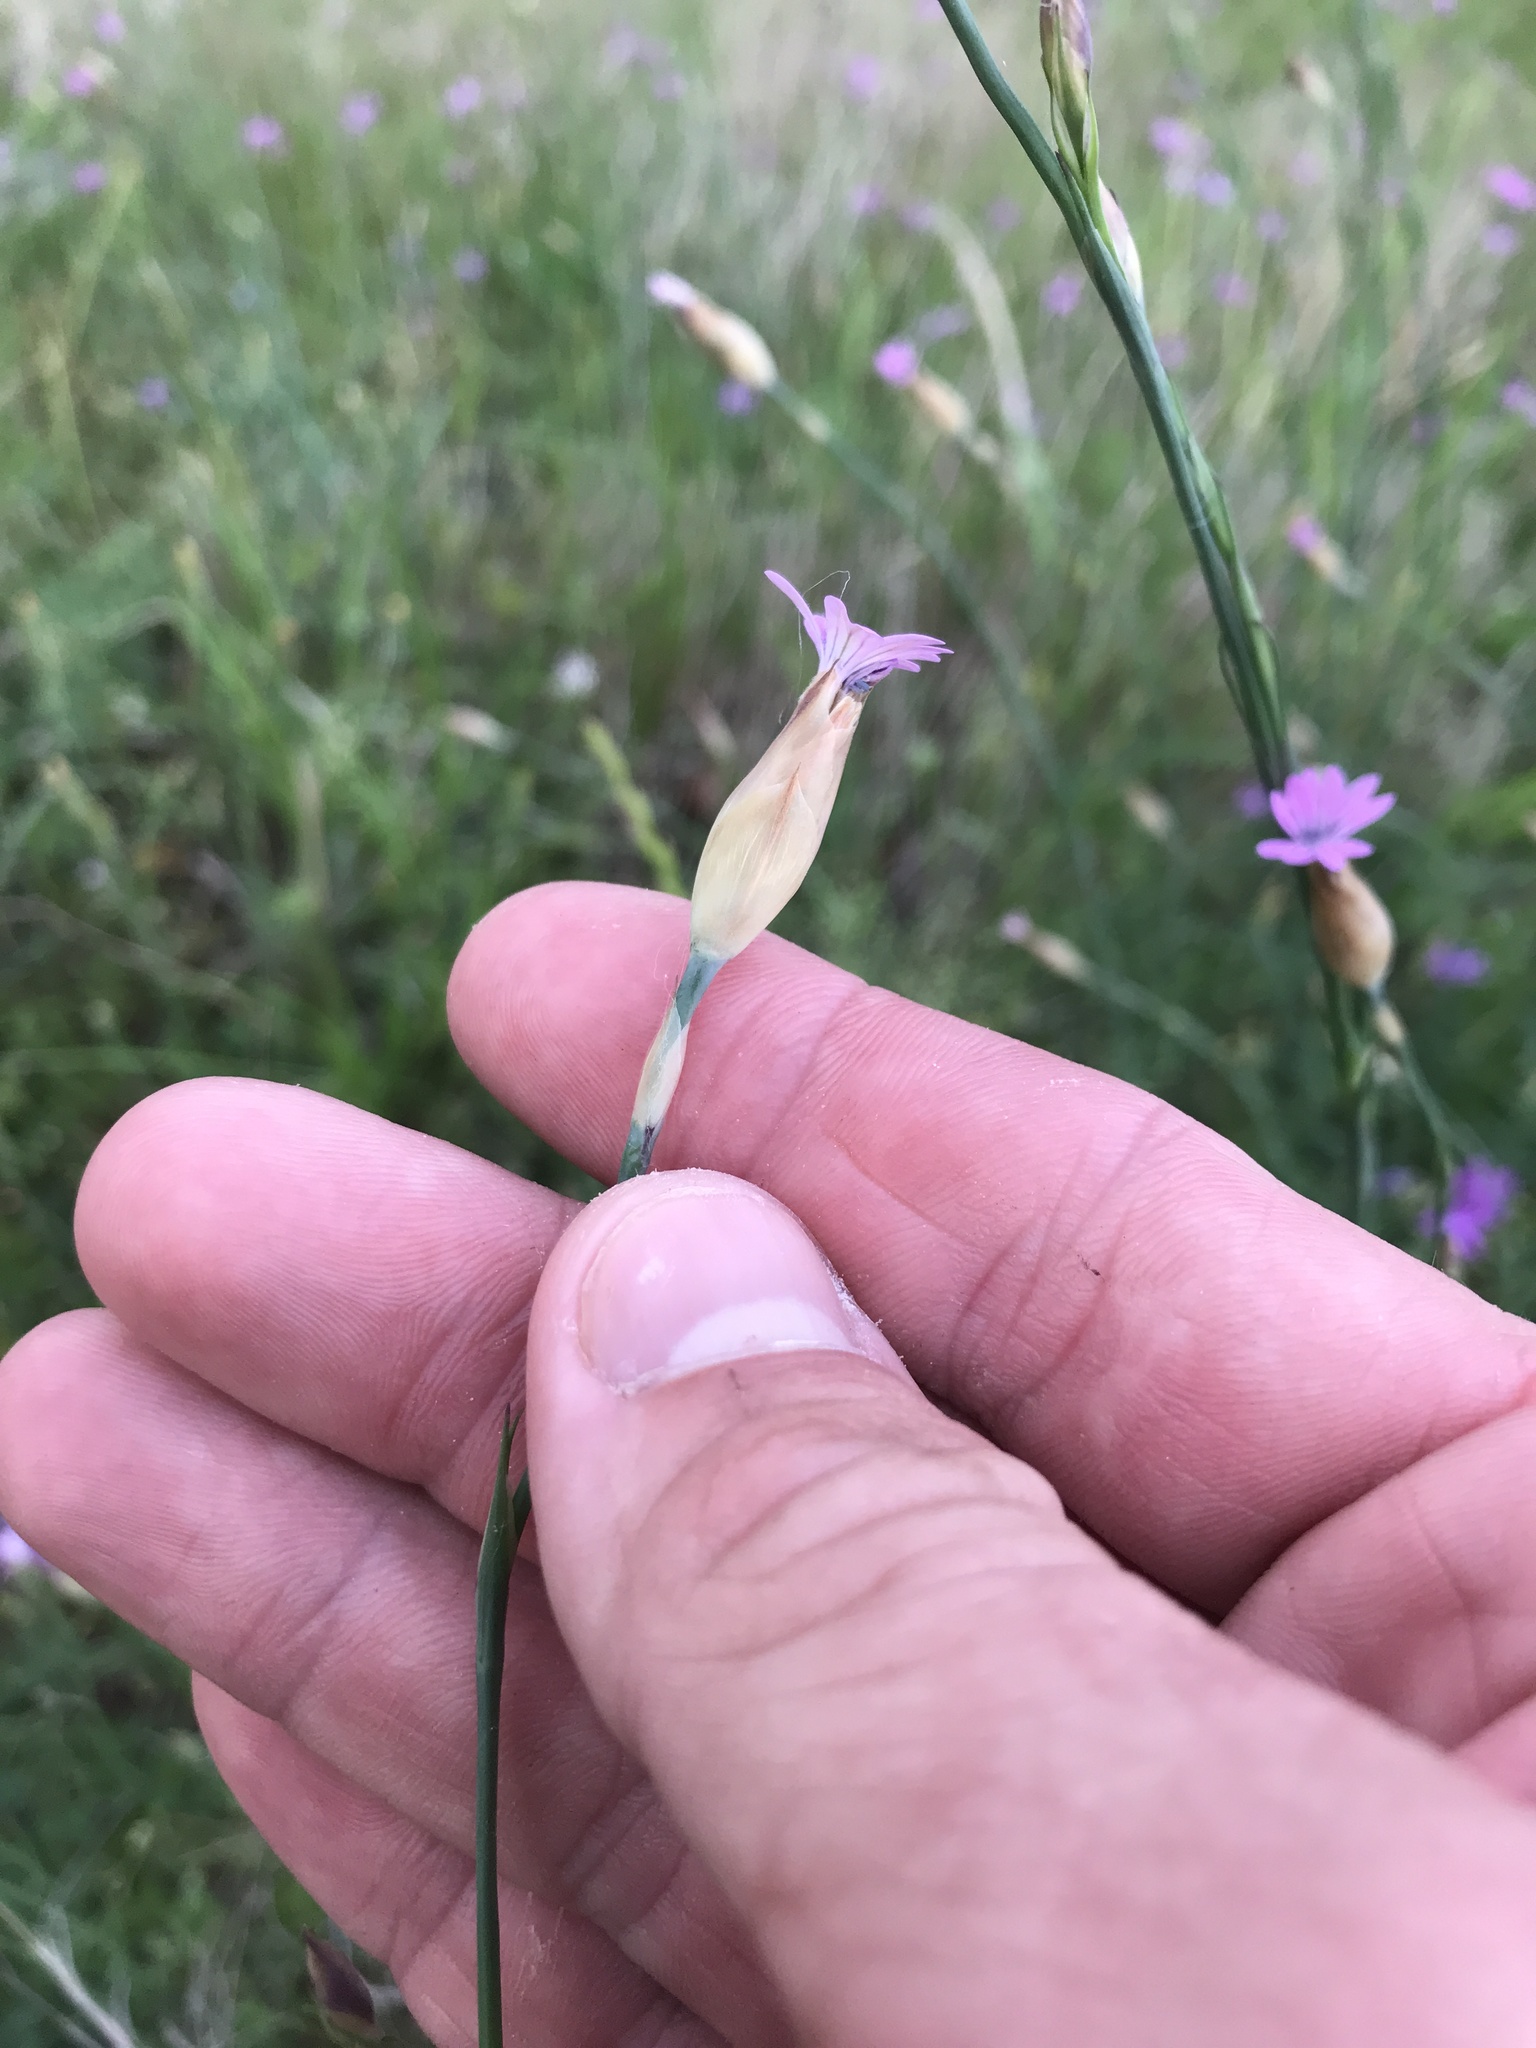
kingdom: Plantae
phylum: Tracheophyta
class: Magnoliopsida
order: Caryophyllales
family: Caryophyllaceae
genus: Petrorhagia
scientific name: Petrorhagia dubia
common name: Hairypink
